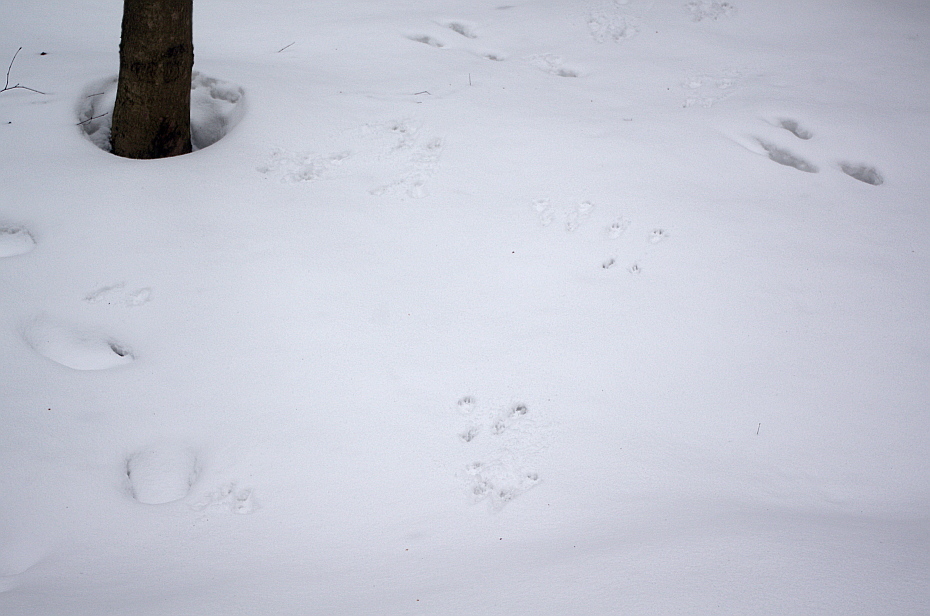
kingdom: Animalia
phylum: Chordata
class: Mammalia
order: Rodentia
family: Sciuridae
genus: Sciurus
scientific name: Sciurus vulgaris
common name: Eurasian red squirrel
